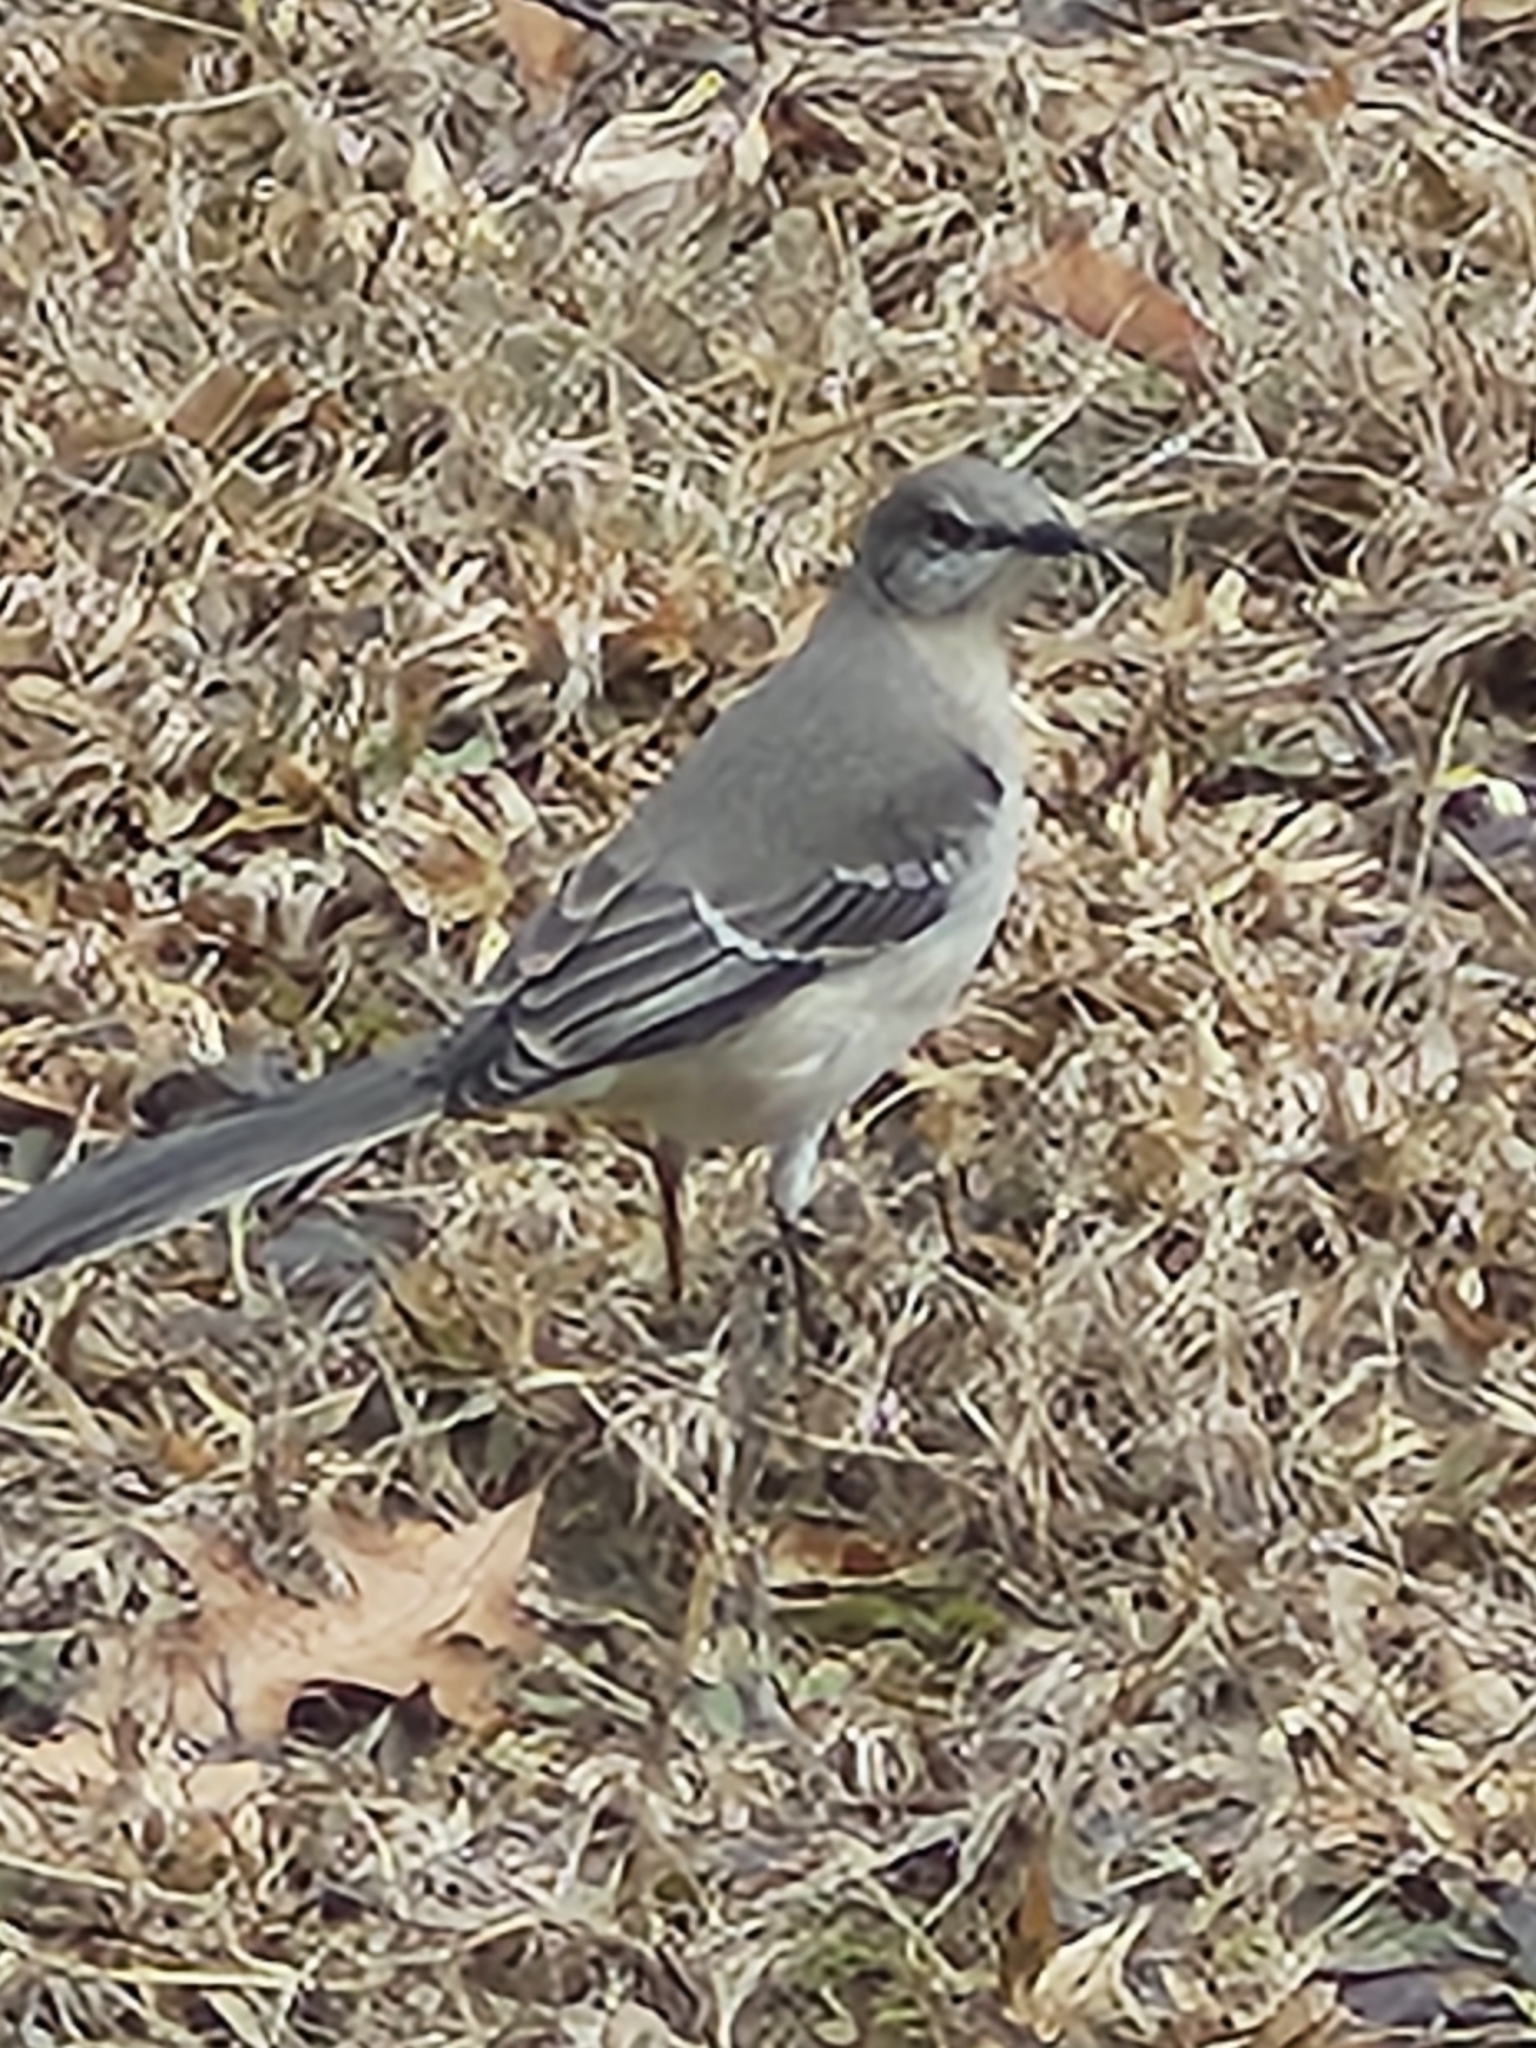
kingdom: Animalia
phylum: Chordata
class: Aves
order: Passeriformes
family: Mimidae
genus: Mimus
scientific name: Mimus polyglottos
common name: Northern mockingbird
